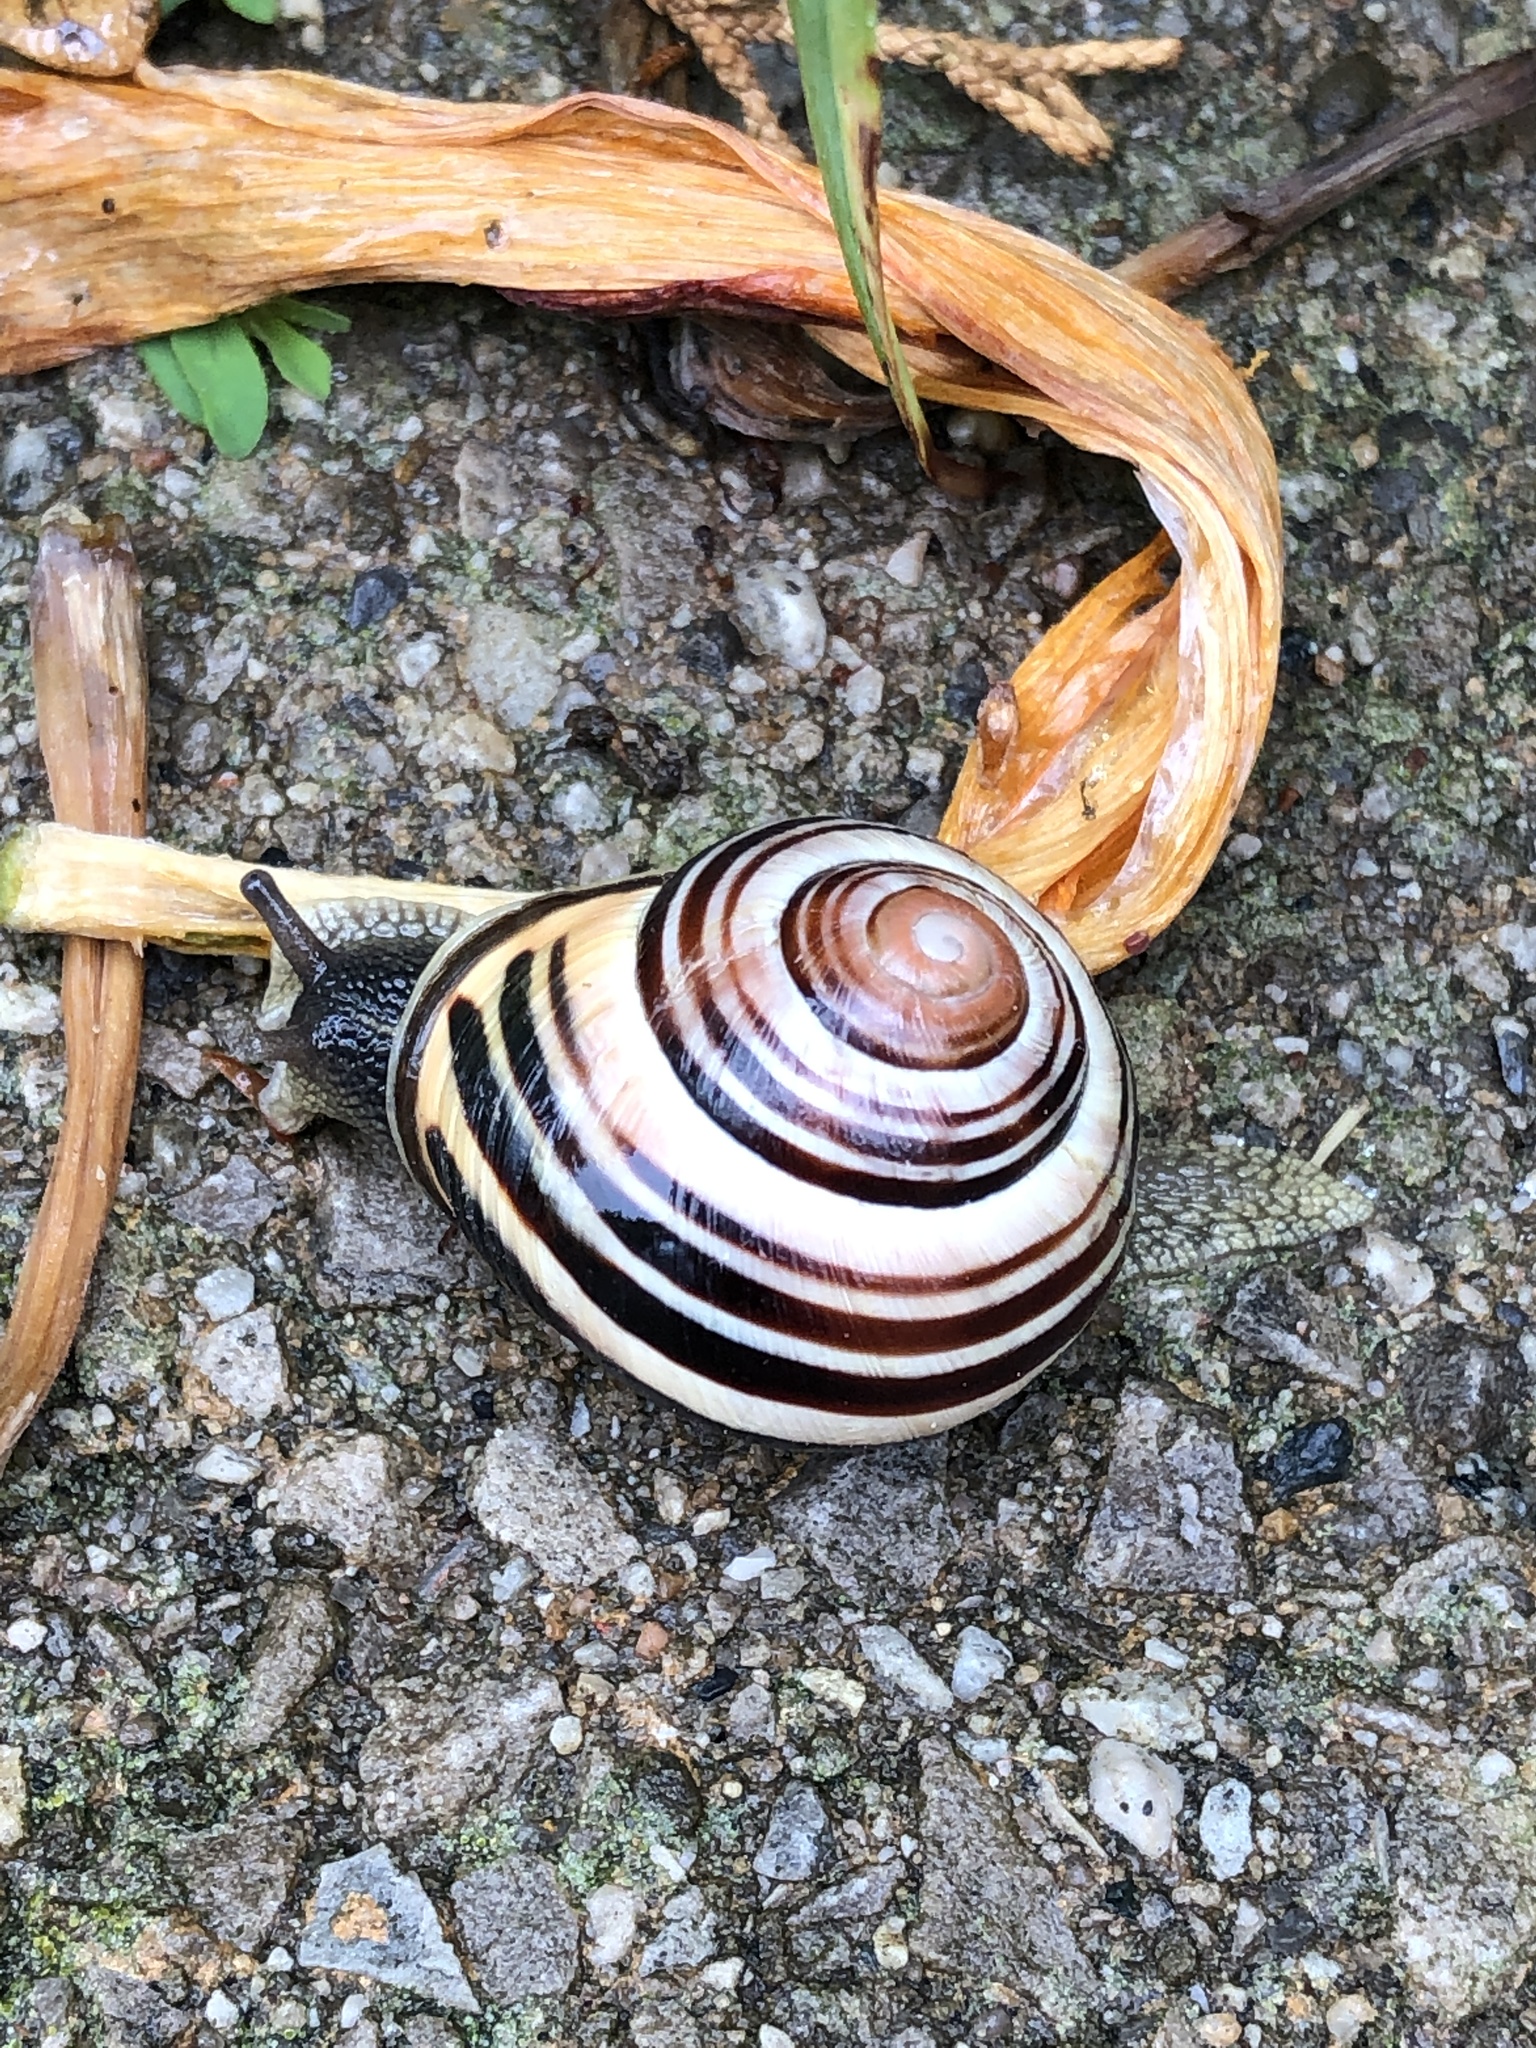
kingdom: Animalia
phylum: Mollusca
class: Gastropoda
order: Stylommatophora
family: Helicidae
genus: Cepaea
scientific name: Cepaea nemoralis
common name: Grovesnail
